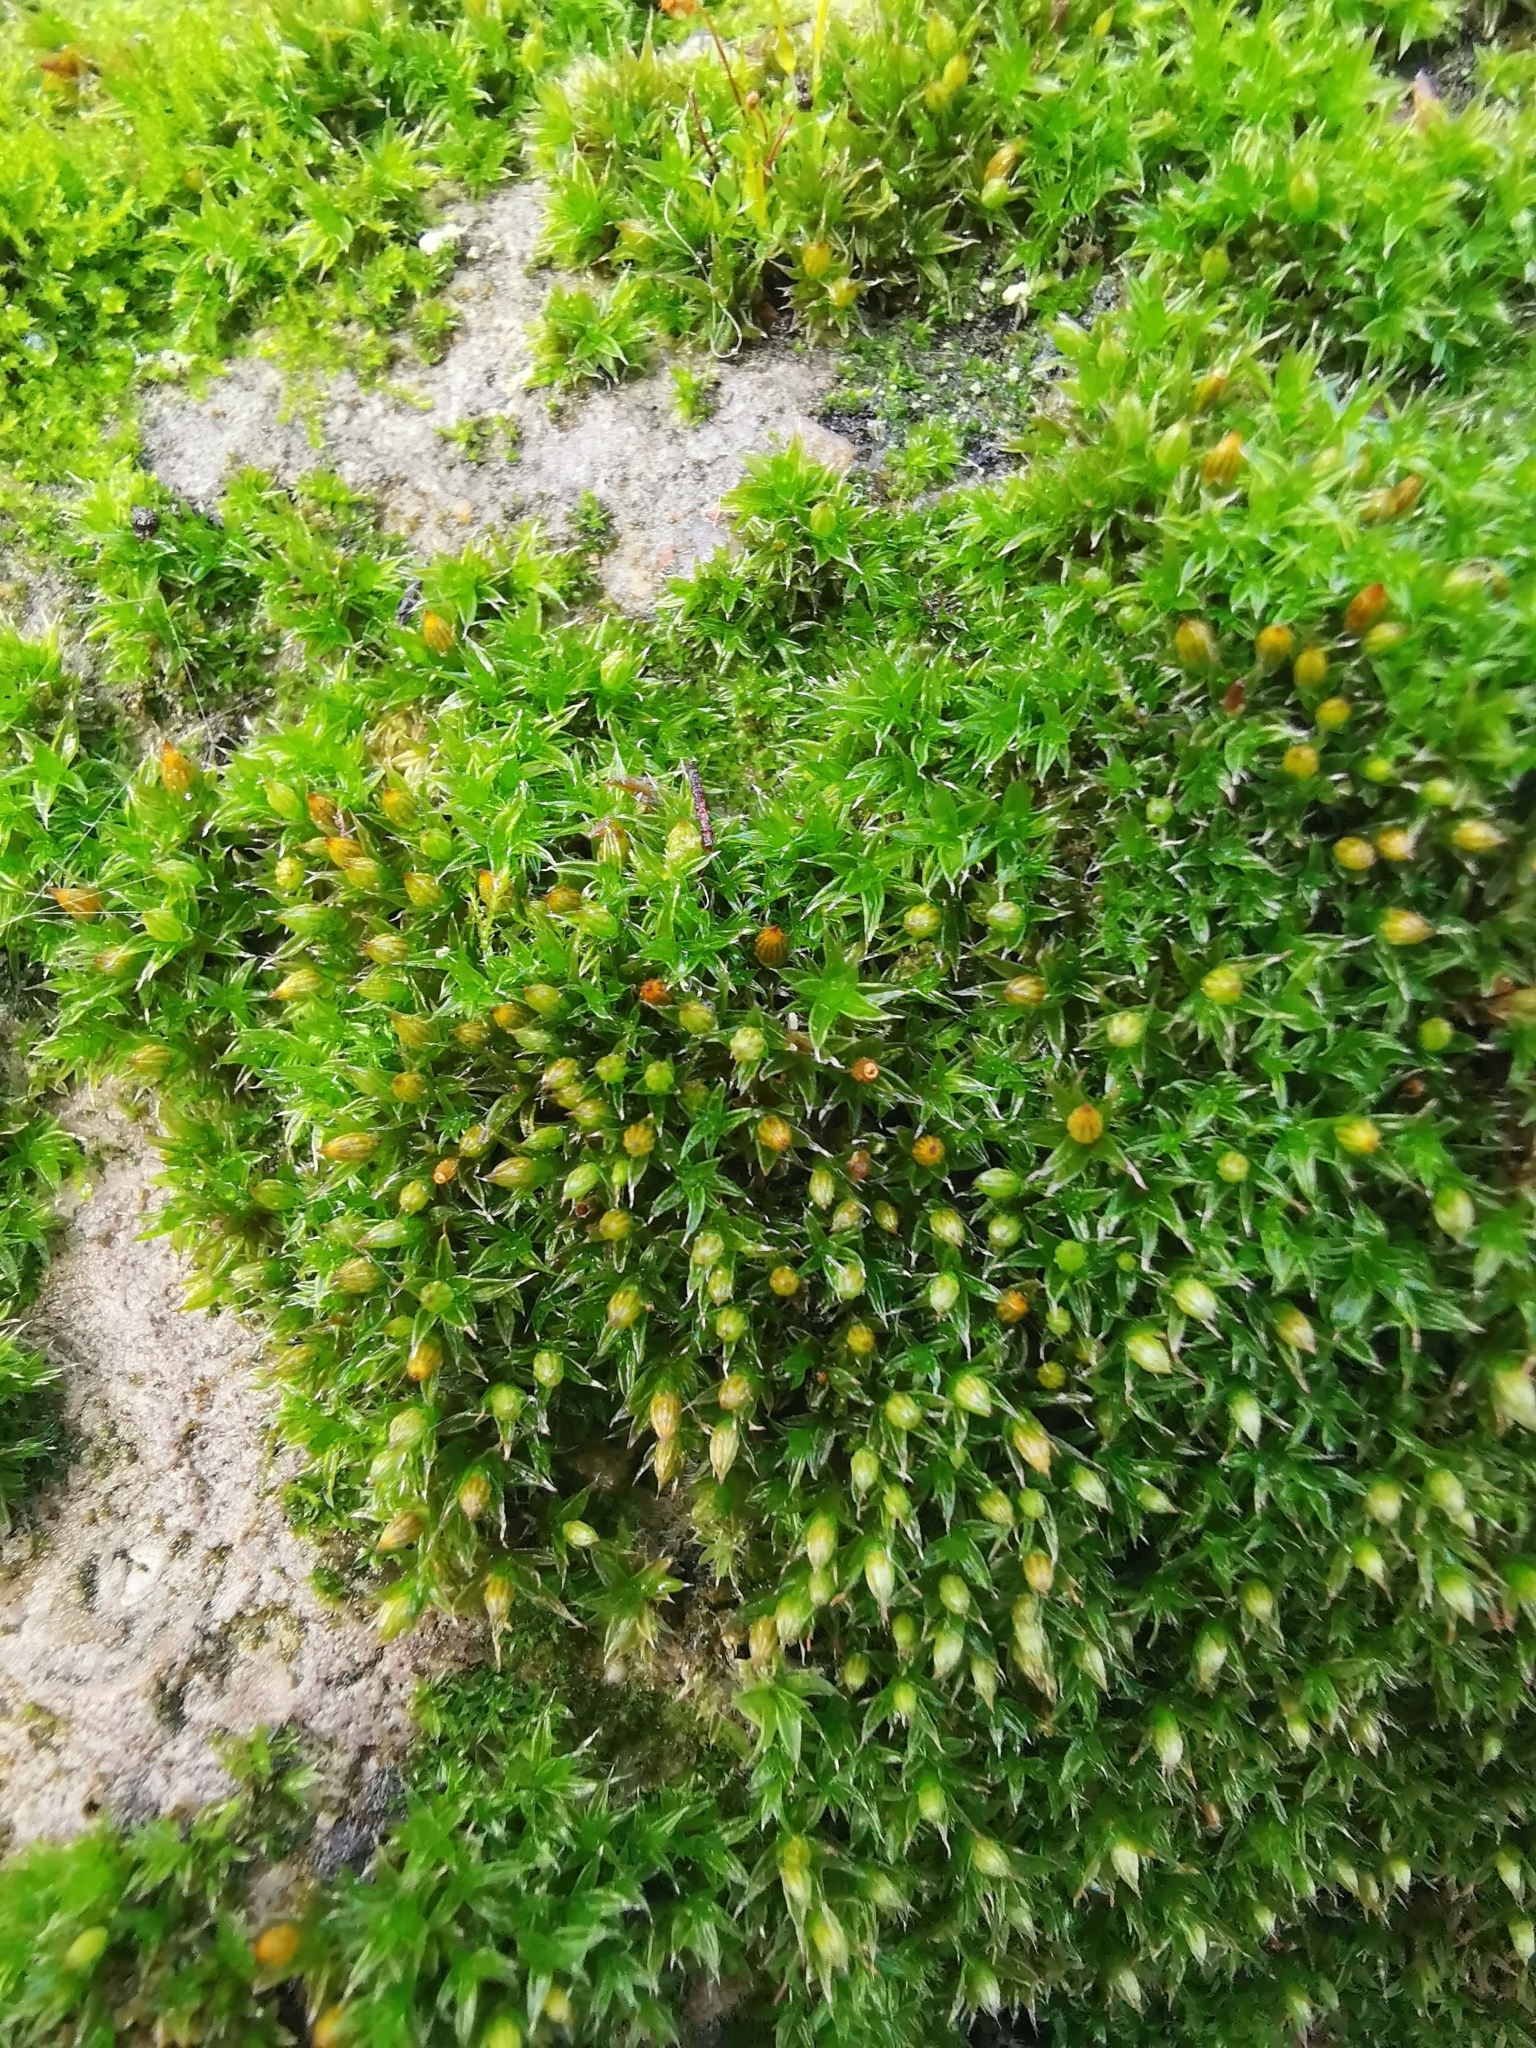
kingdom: Plantae
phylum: Bryophyta
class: Bryopsida
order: Orthotrichales
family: Orthotrichaceae
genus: Orthotrichum
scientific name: Orthotrichum diaphanum
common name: White-tipped bristle-moss
